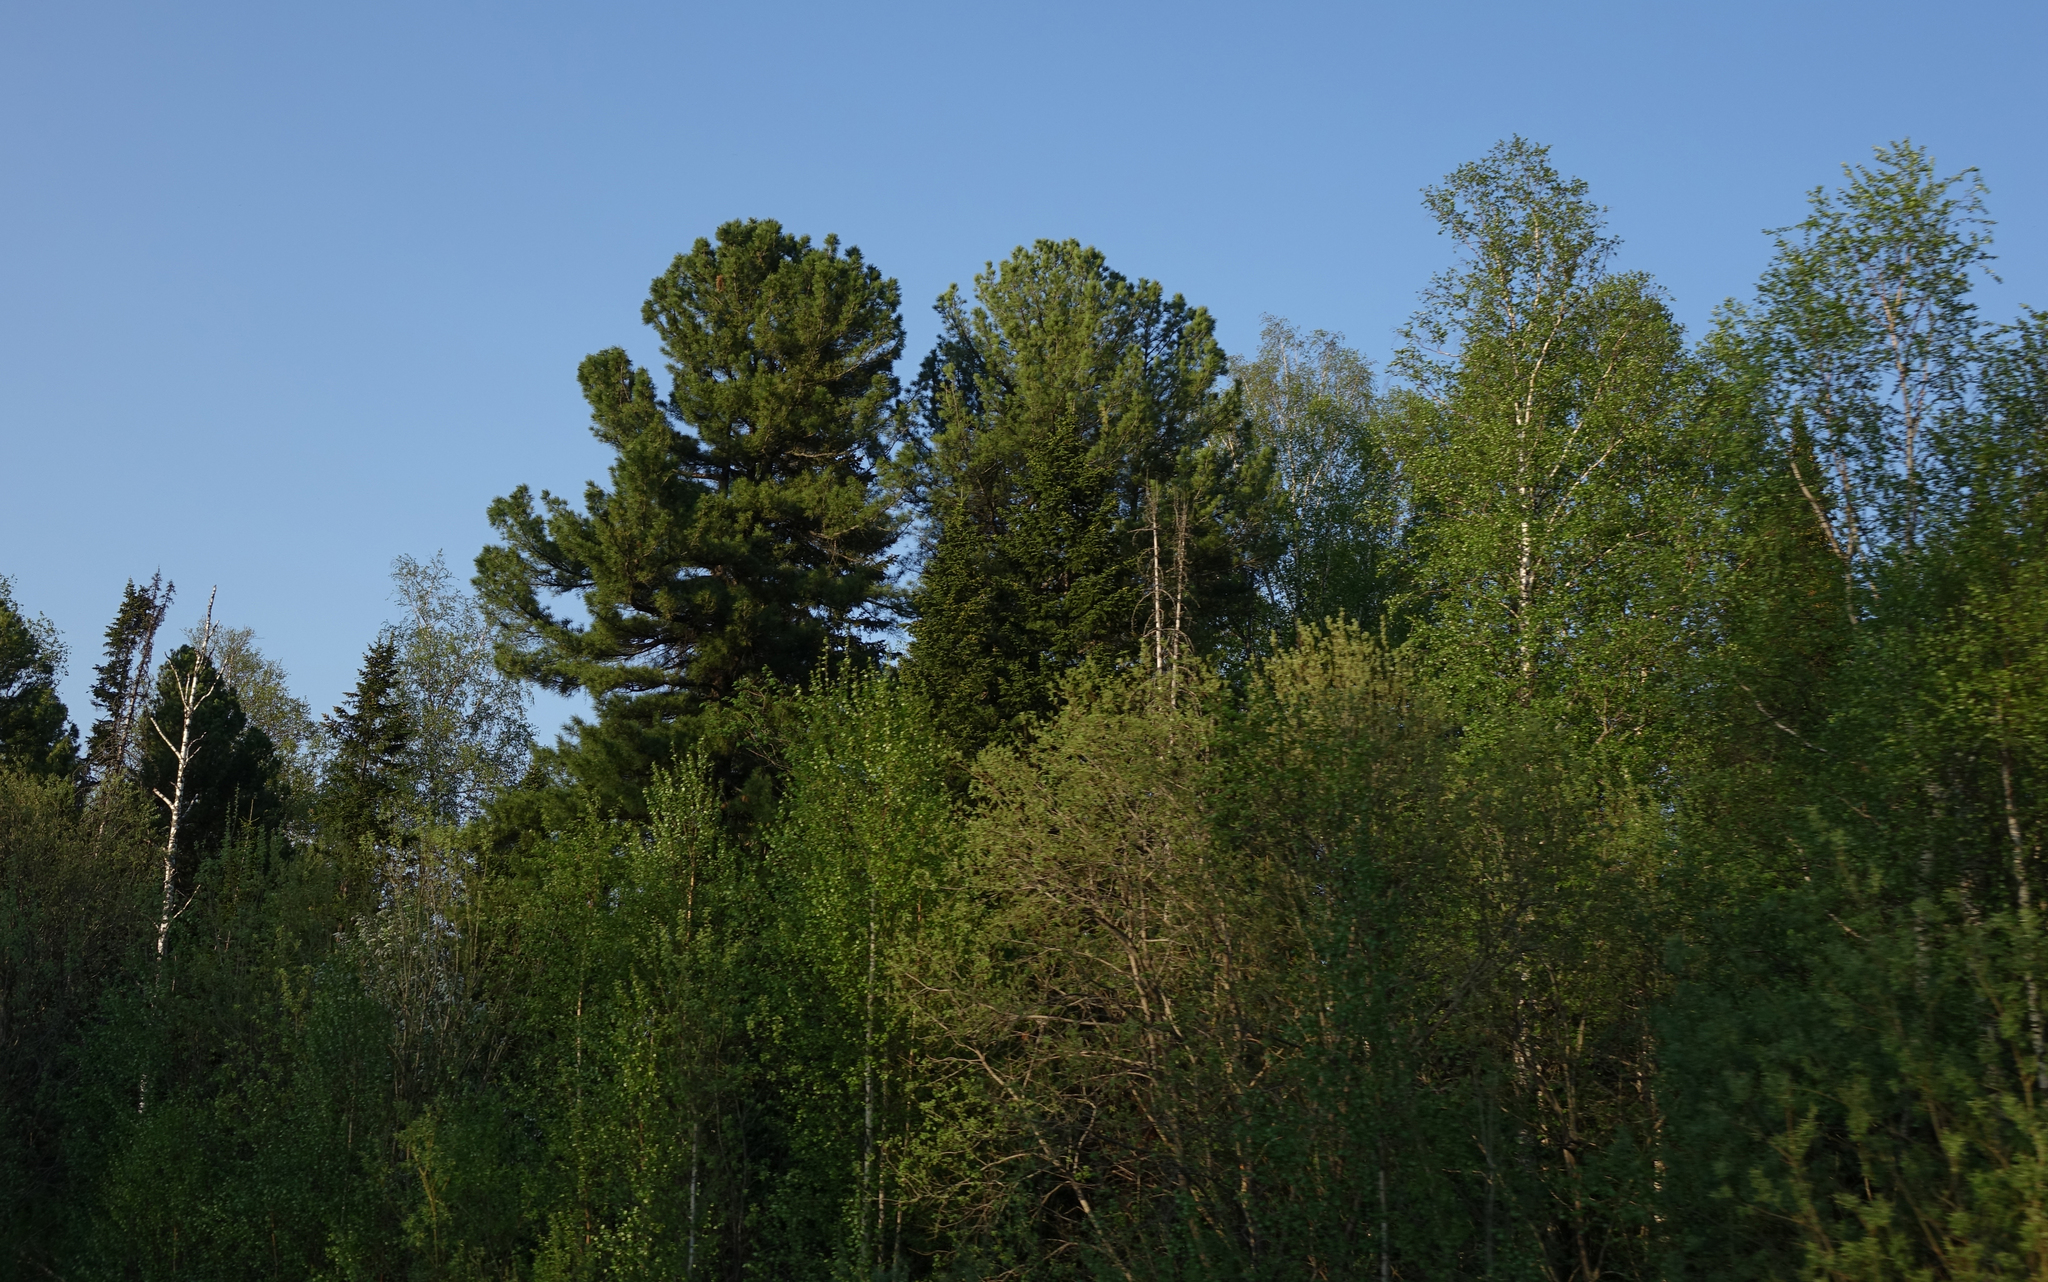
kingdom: Plantae
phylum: Tracheophyta
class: Pinopsida
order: Pinales
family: Pinaceae
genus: Pinus
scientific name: Pinus sibirica
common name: Siberian pine
